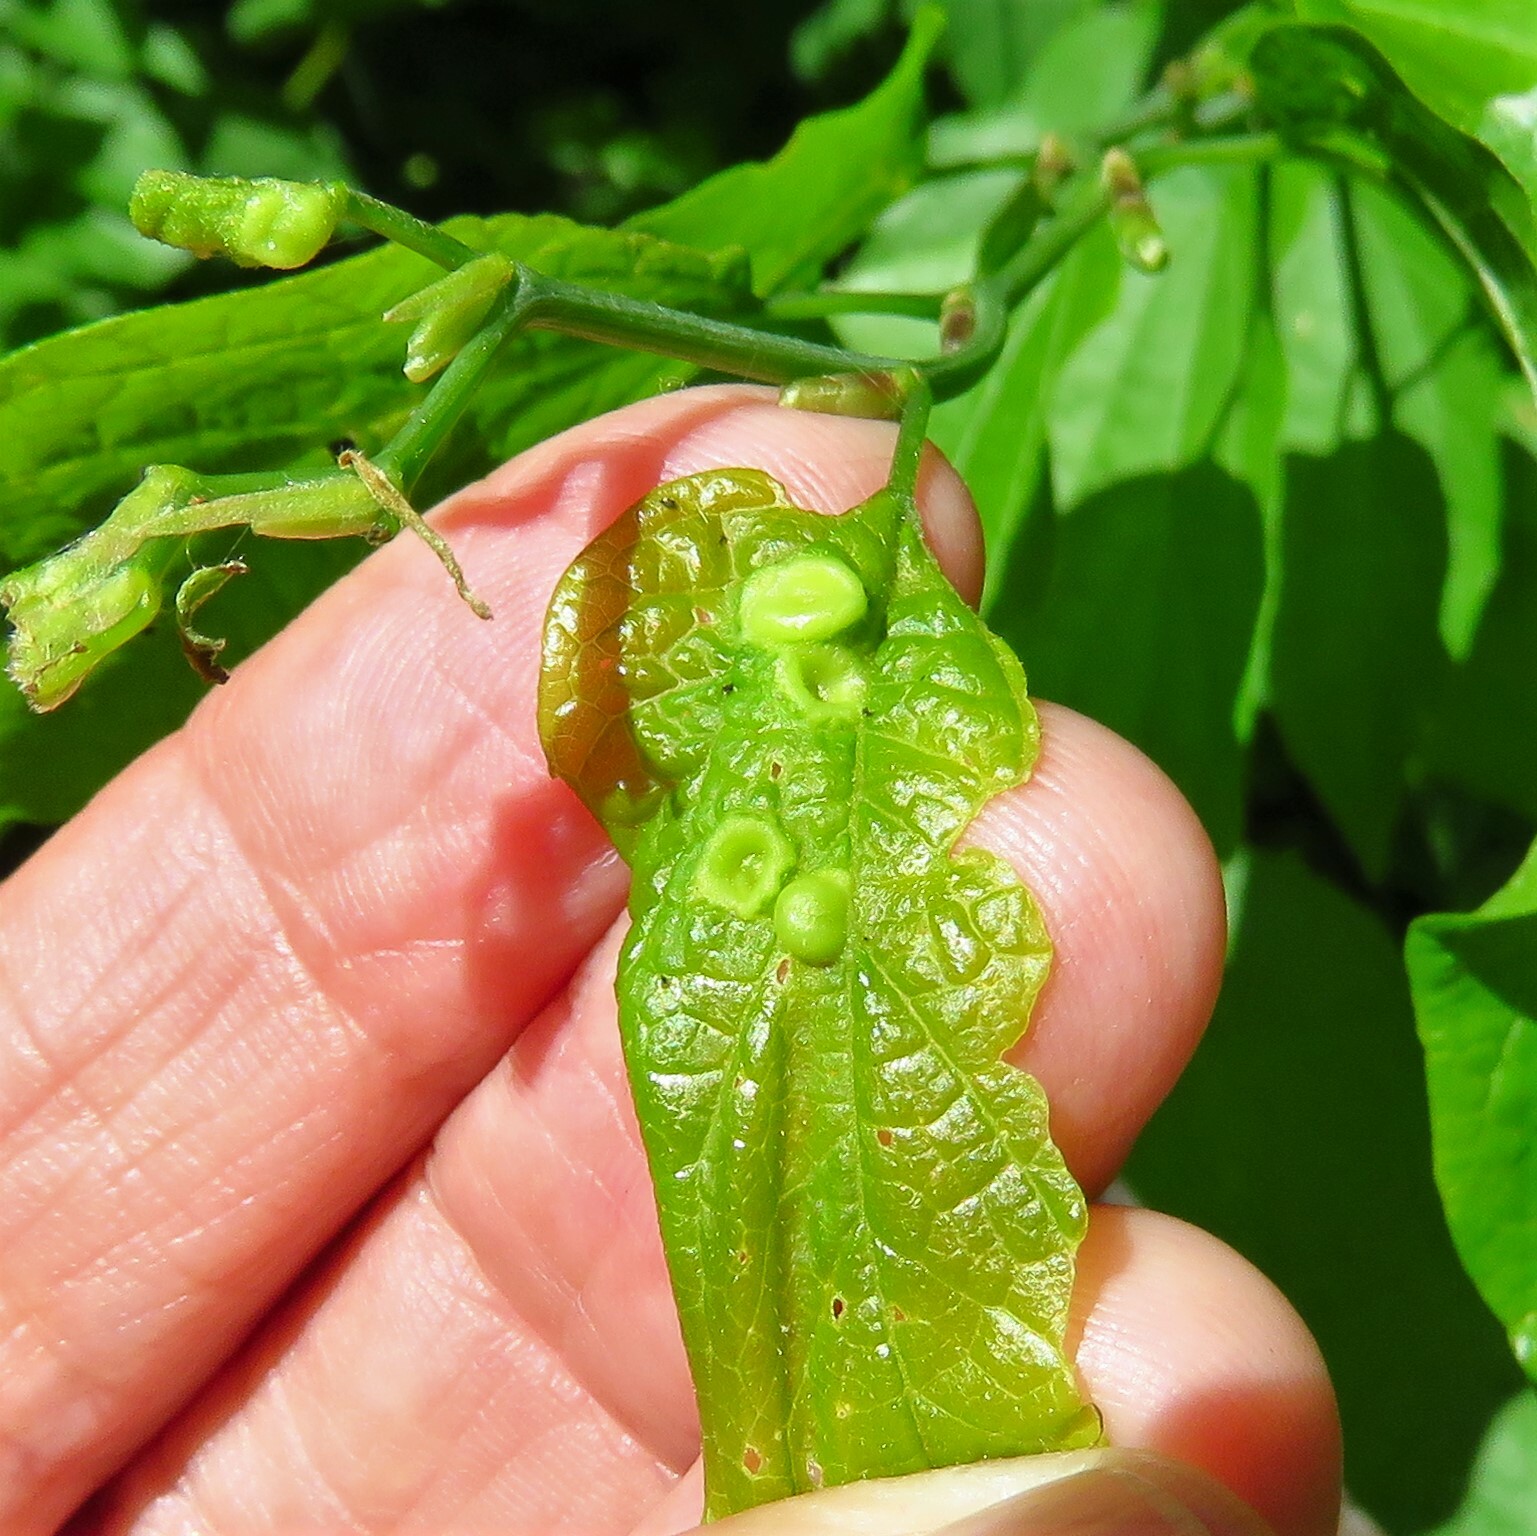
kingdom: Animalia
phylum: Arthropoda
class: Insecta
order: Hemiptera
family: Aphalaridae
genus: Pachypsylla
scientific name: Pachypsylla celtidismamma
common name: Hackberry nipplegall psyllid
